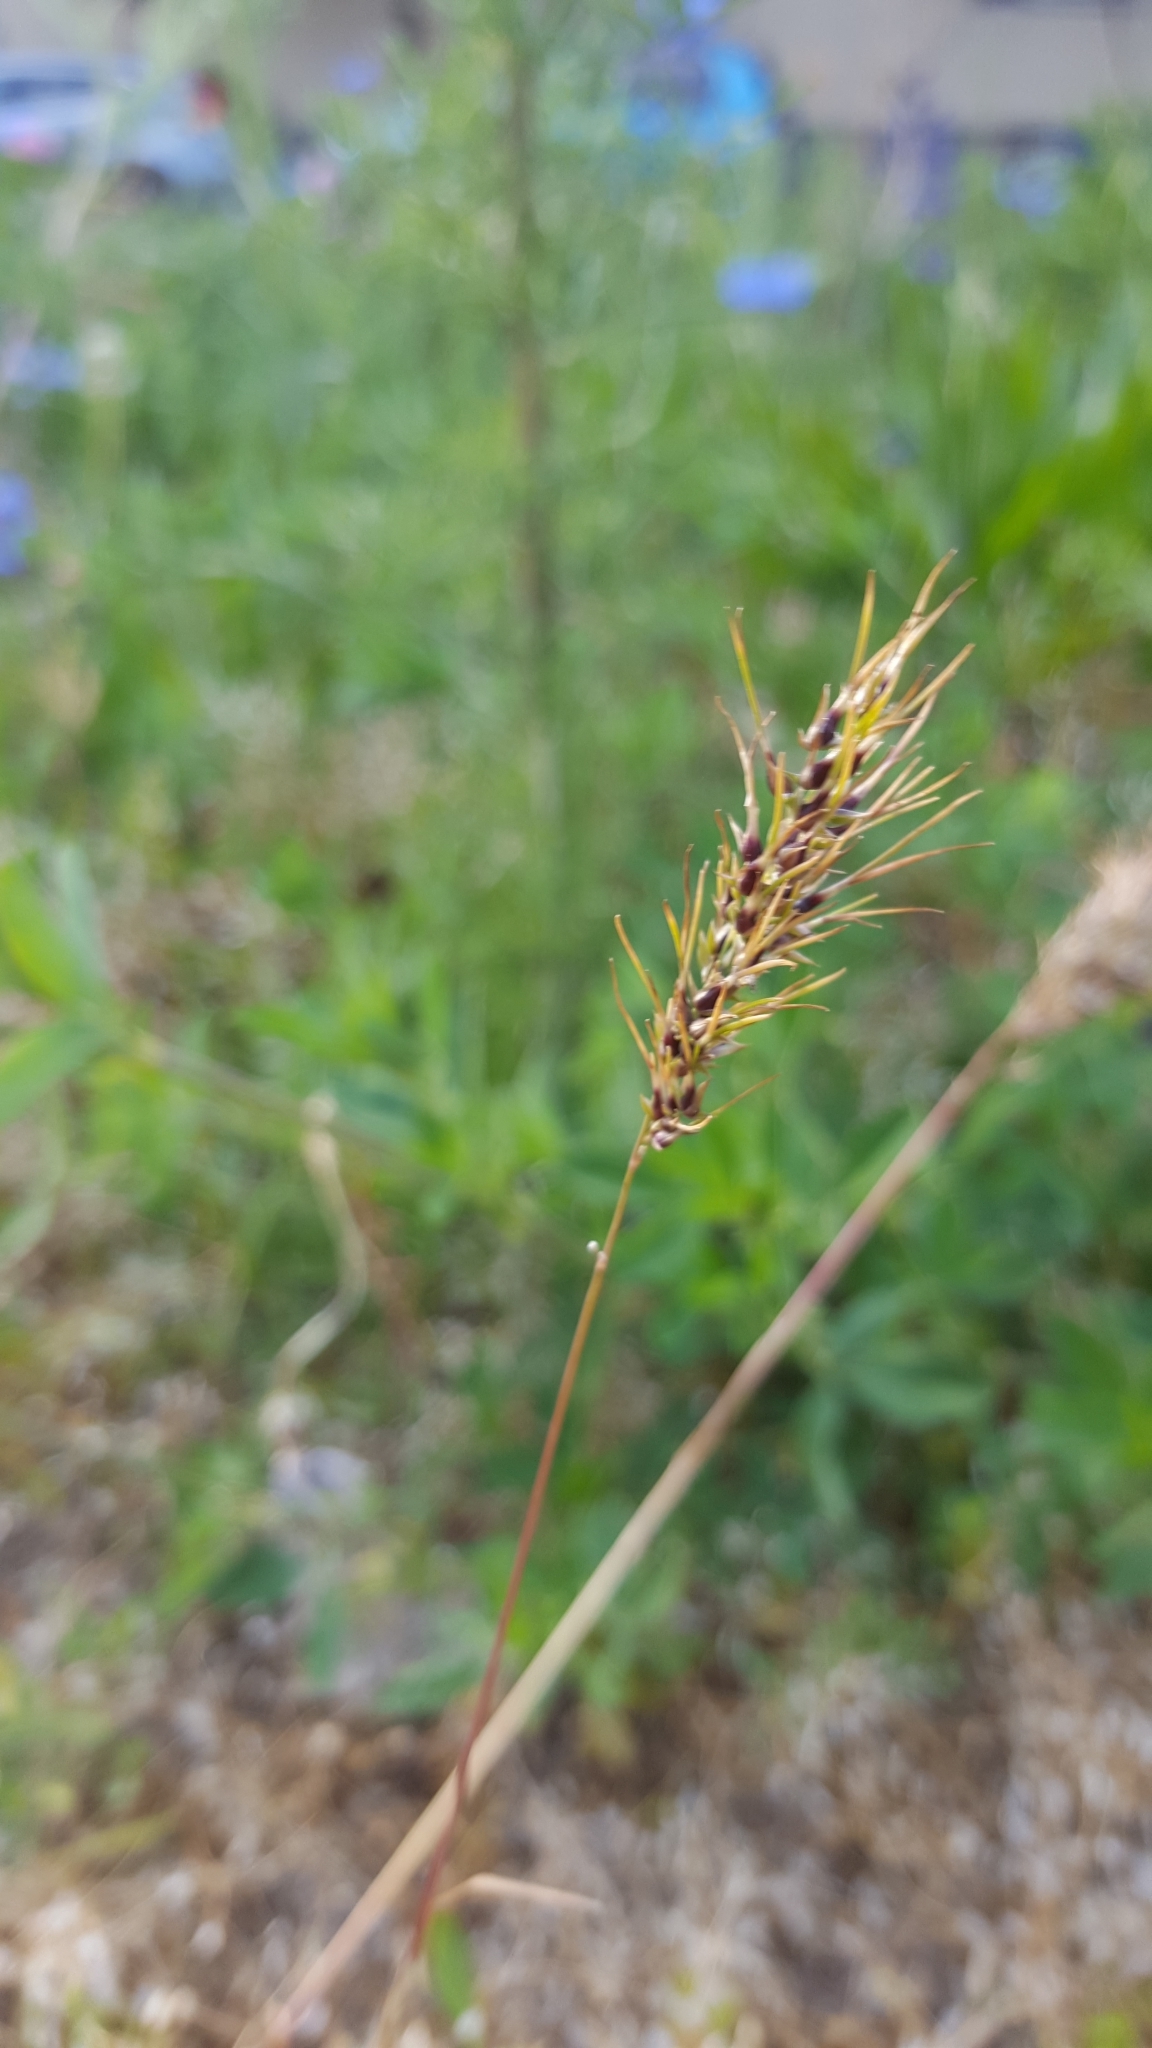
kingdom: Plantae
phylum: Tracheophyta
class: Liliopsida
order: Poales
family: Poaceae
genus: Poa
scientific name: Poa bulbosa
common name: Bulbous bluegrass
